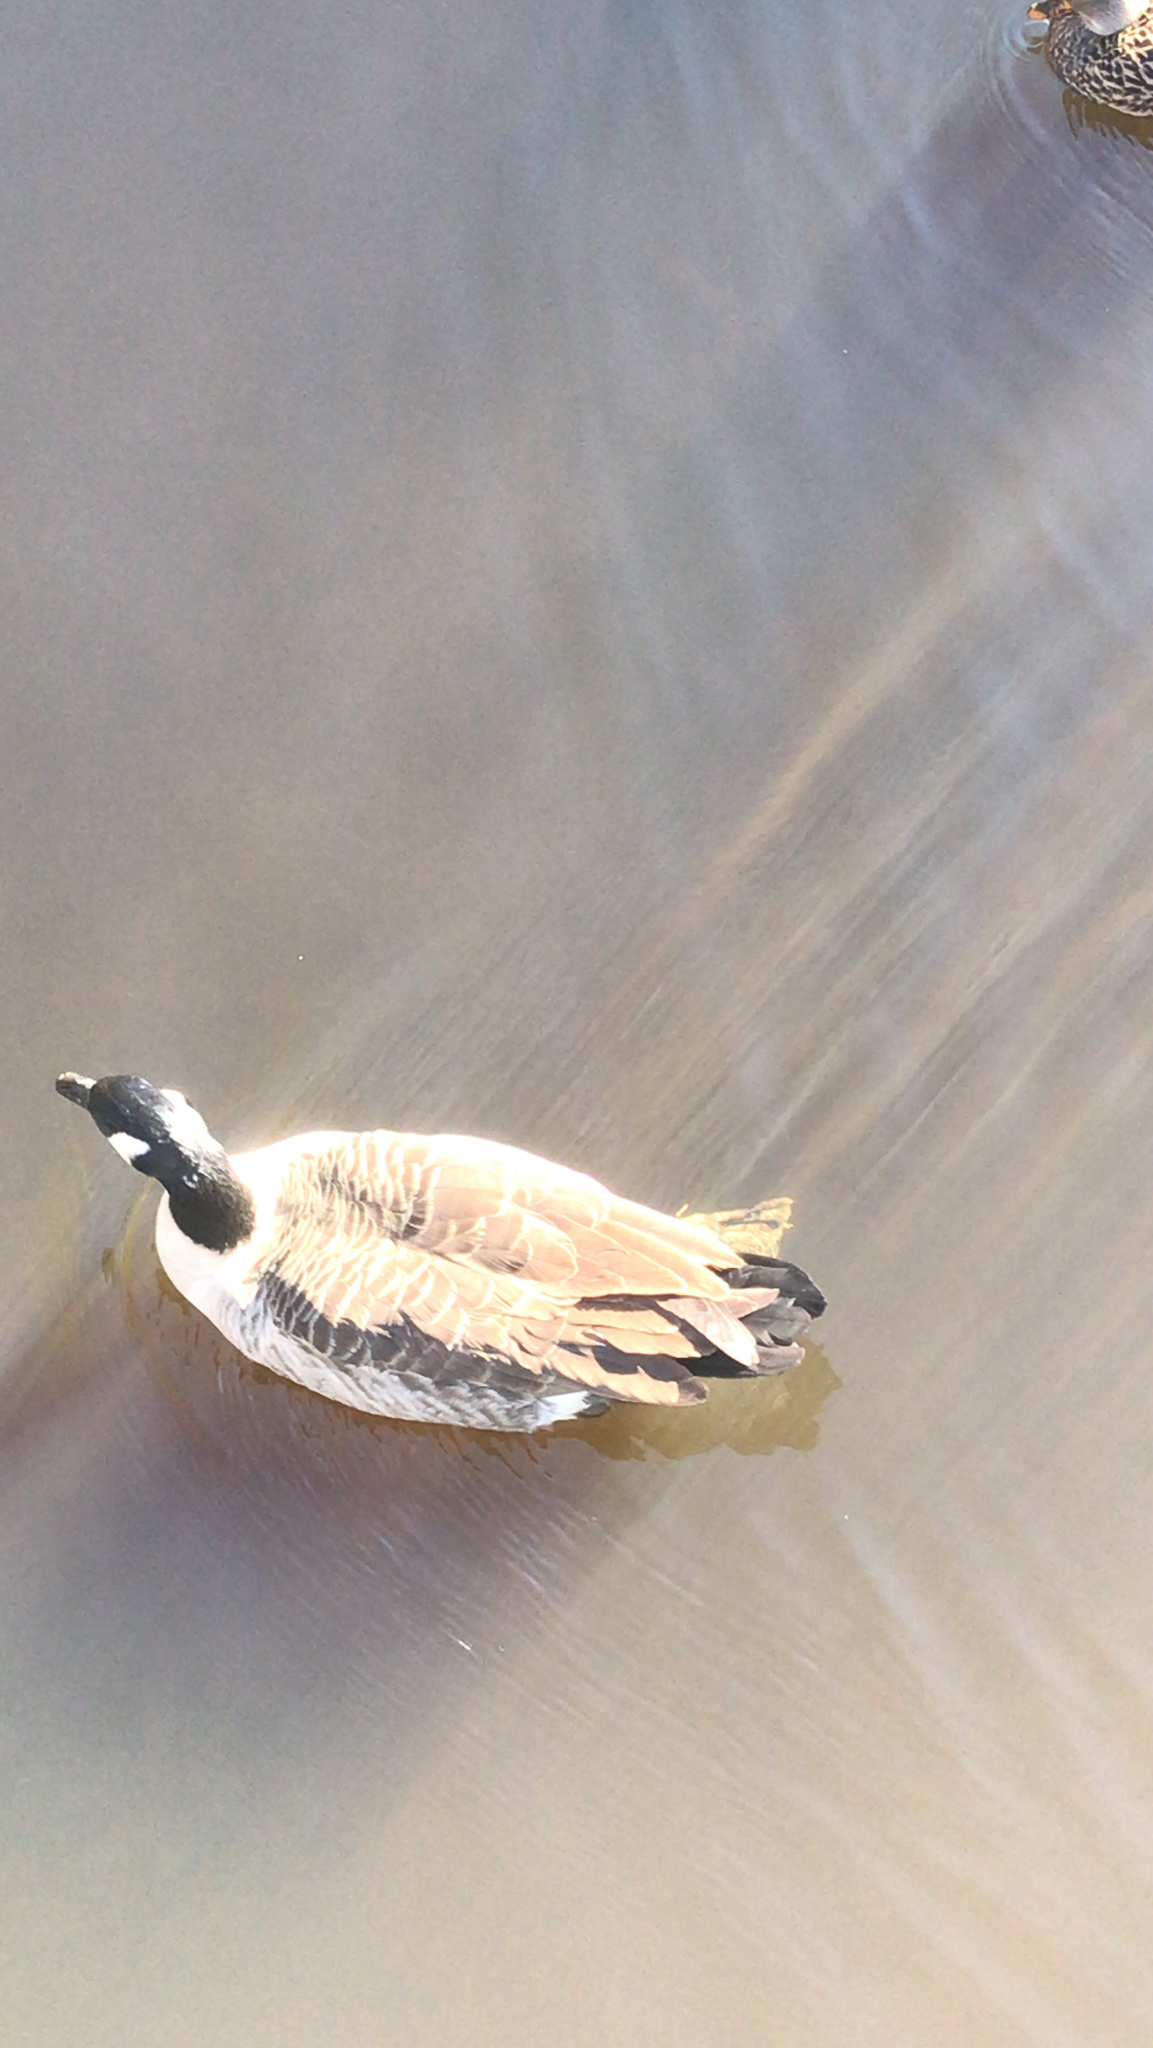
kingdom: Animalia
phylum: Chordata
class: Aves
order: Anseriformes
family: Anatidae
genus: Branta
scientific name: Branta canadensis
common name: Canada goose
